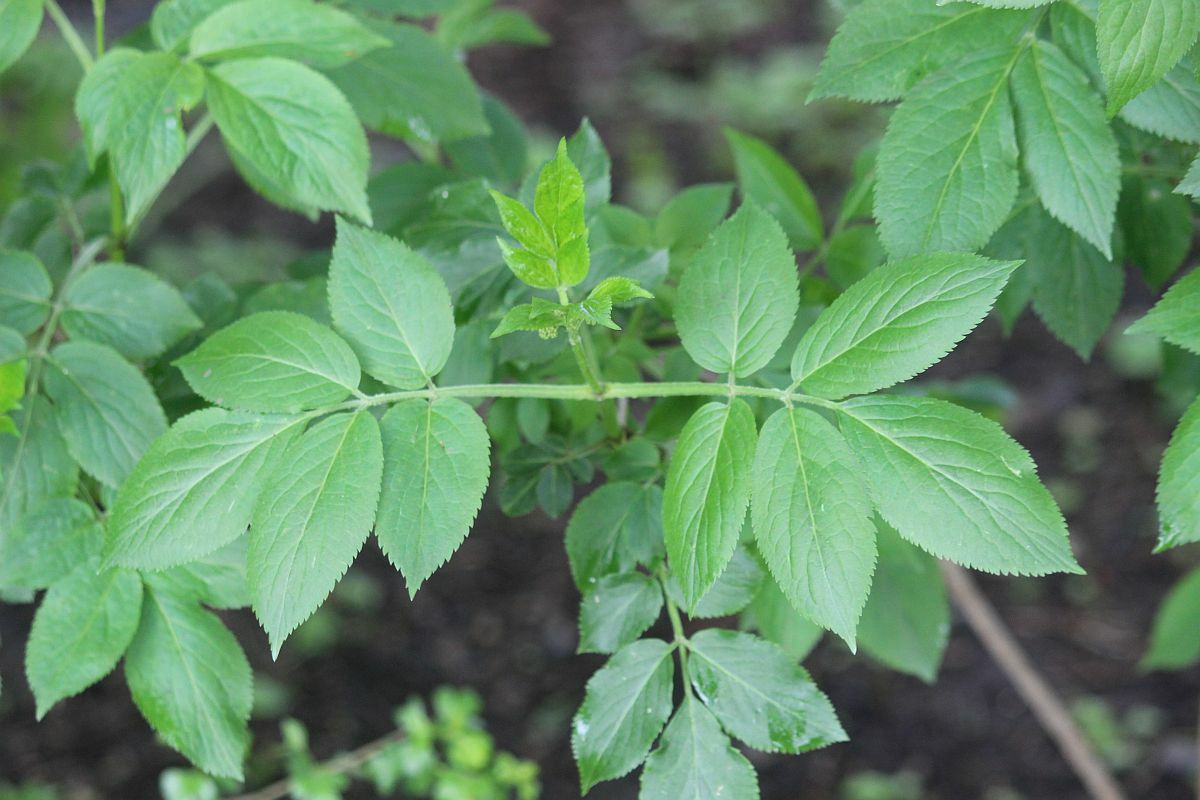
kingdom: Plantae
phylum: Tracheophyta
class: Magnoliopsida
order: Dipsacales
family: Viburnaceae
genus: Sambucus
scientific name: Sambucus nigra
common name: Elder
